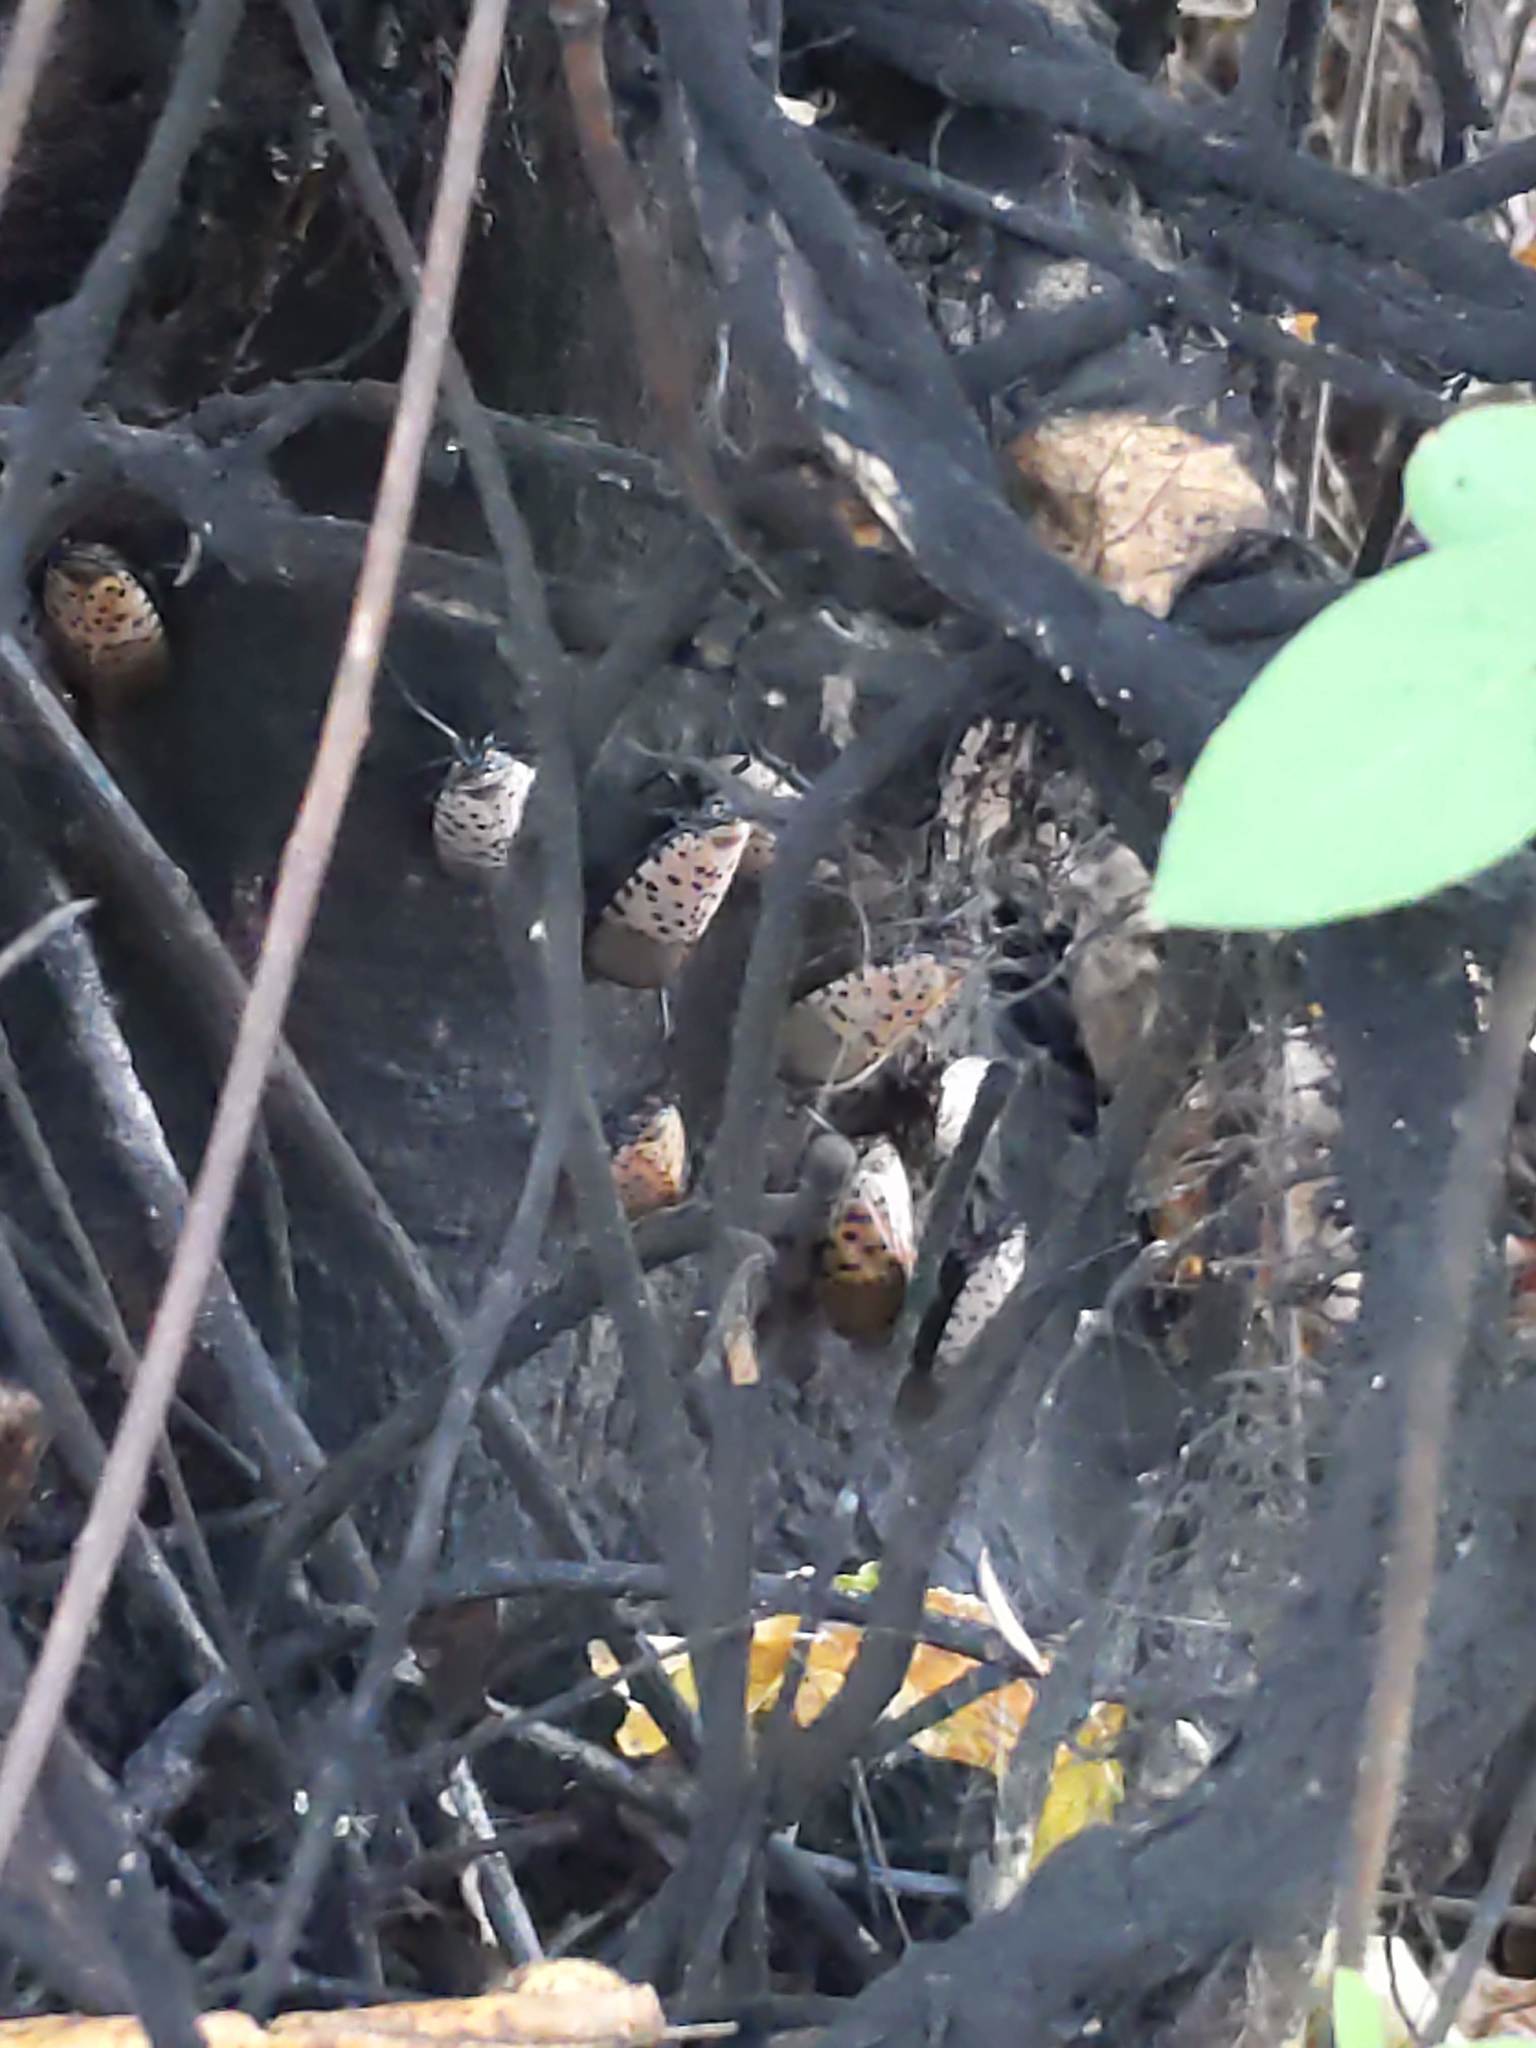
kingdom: Animalia
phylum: Arthropoda
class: Insecta
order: Hemiptera
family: Fulgoridae
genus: Lycorma
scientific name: Lycorma delicatula
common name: Spotted lanternfly
